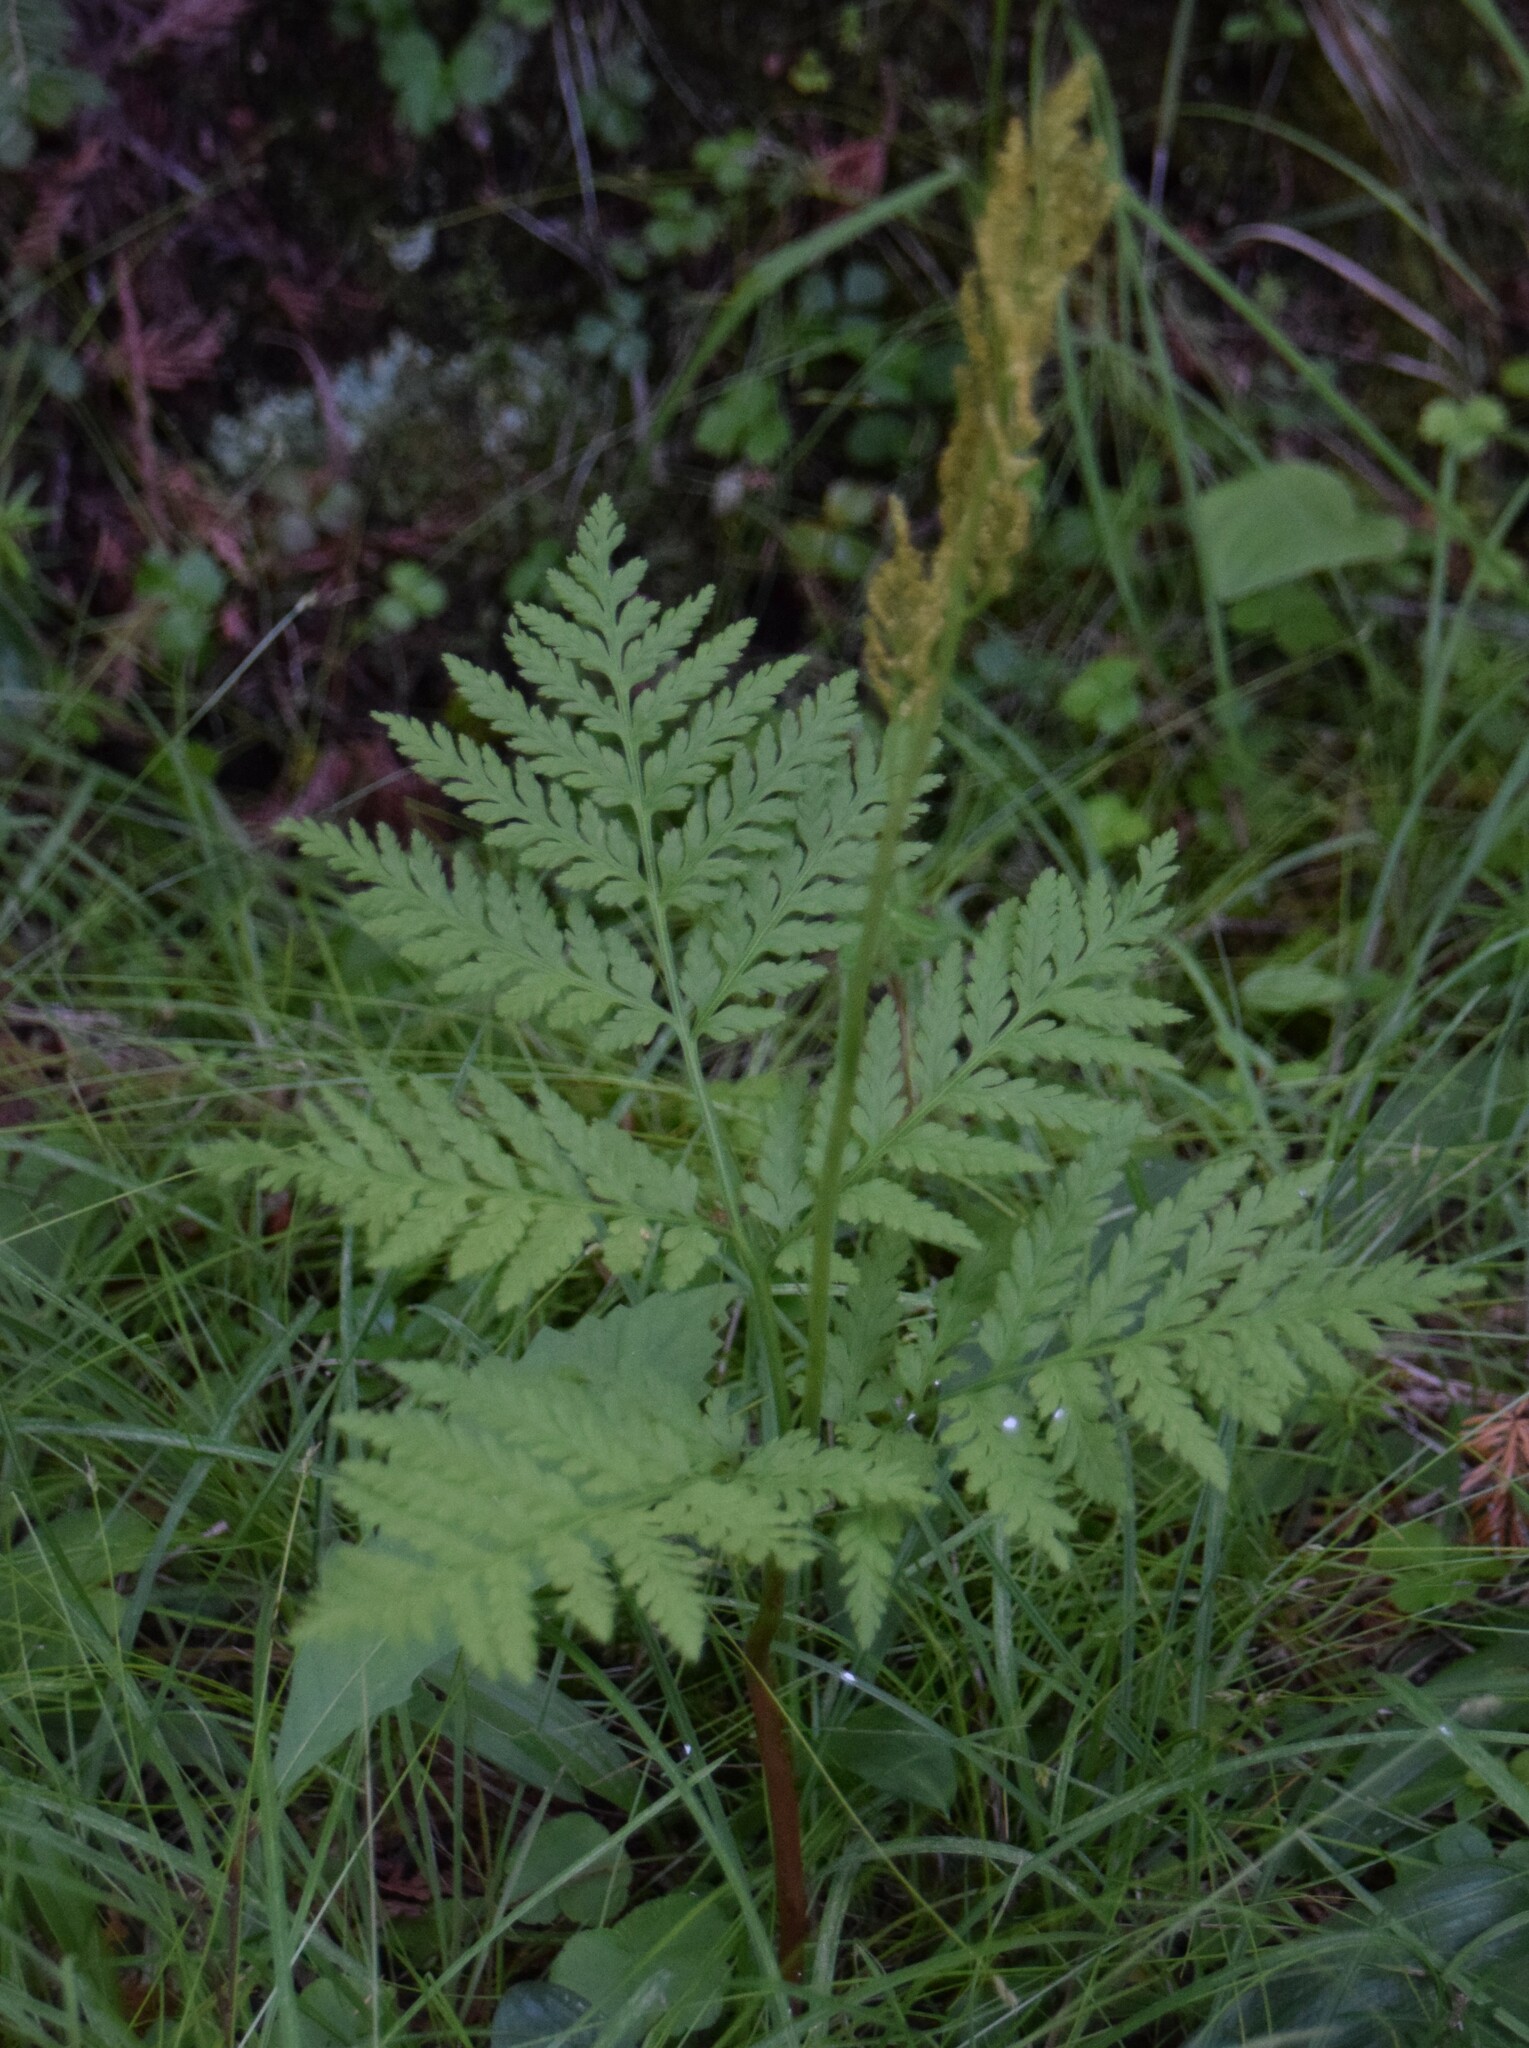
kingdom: Plantae
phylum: Tracheophyta
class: Polypodiopsida
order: Ophioglossales
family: Ophioglossaceae
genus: Botrypus
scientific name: Botrypus virginianus
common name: Common grapefern
